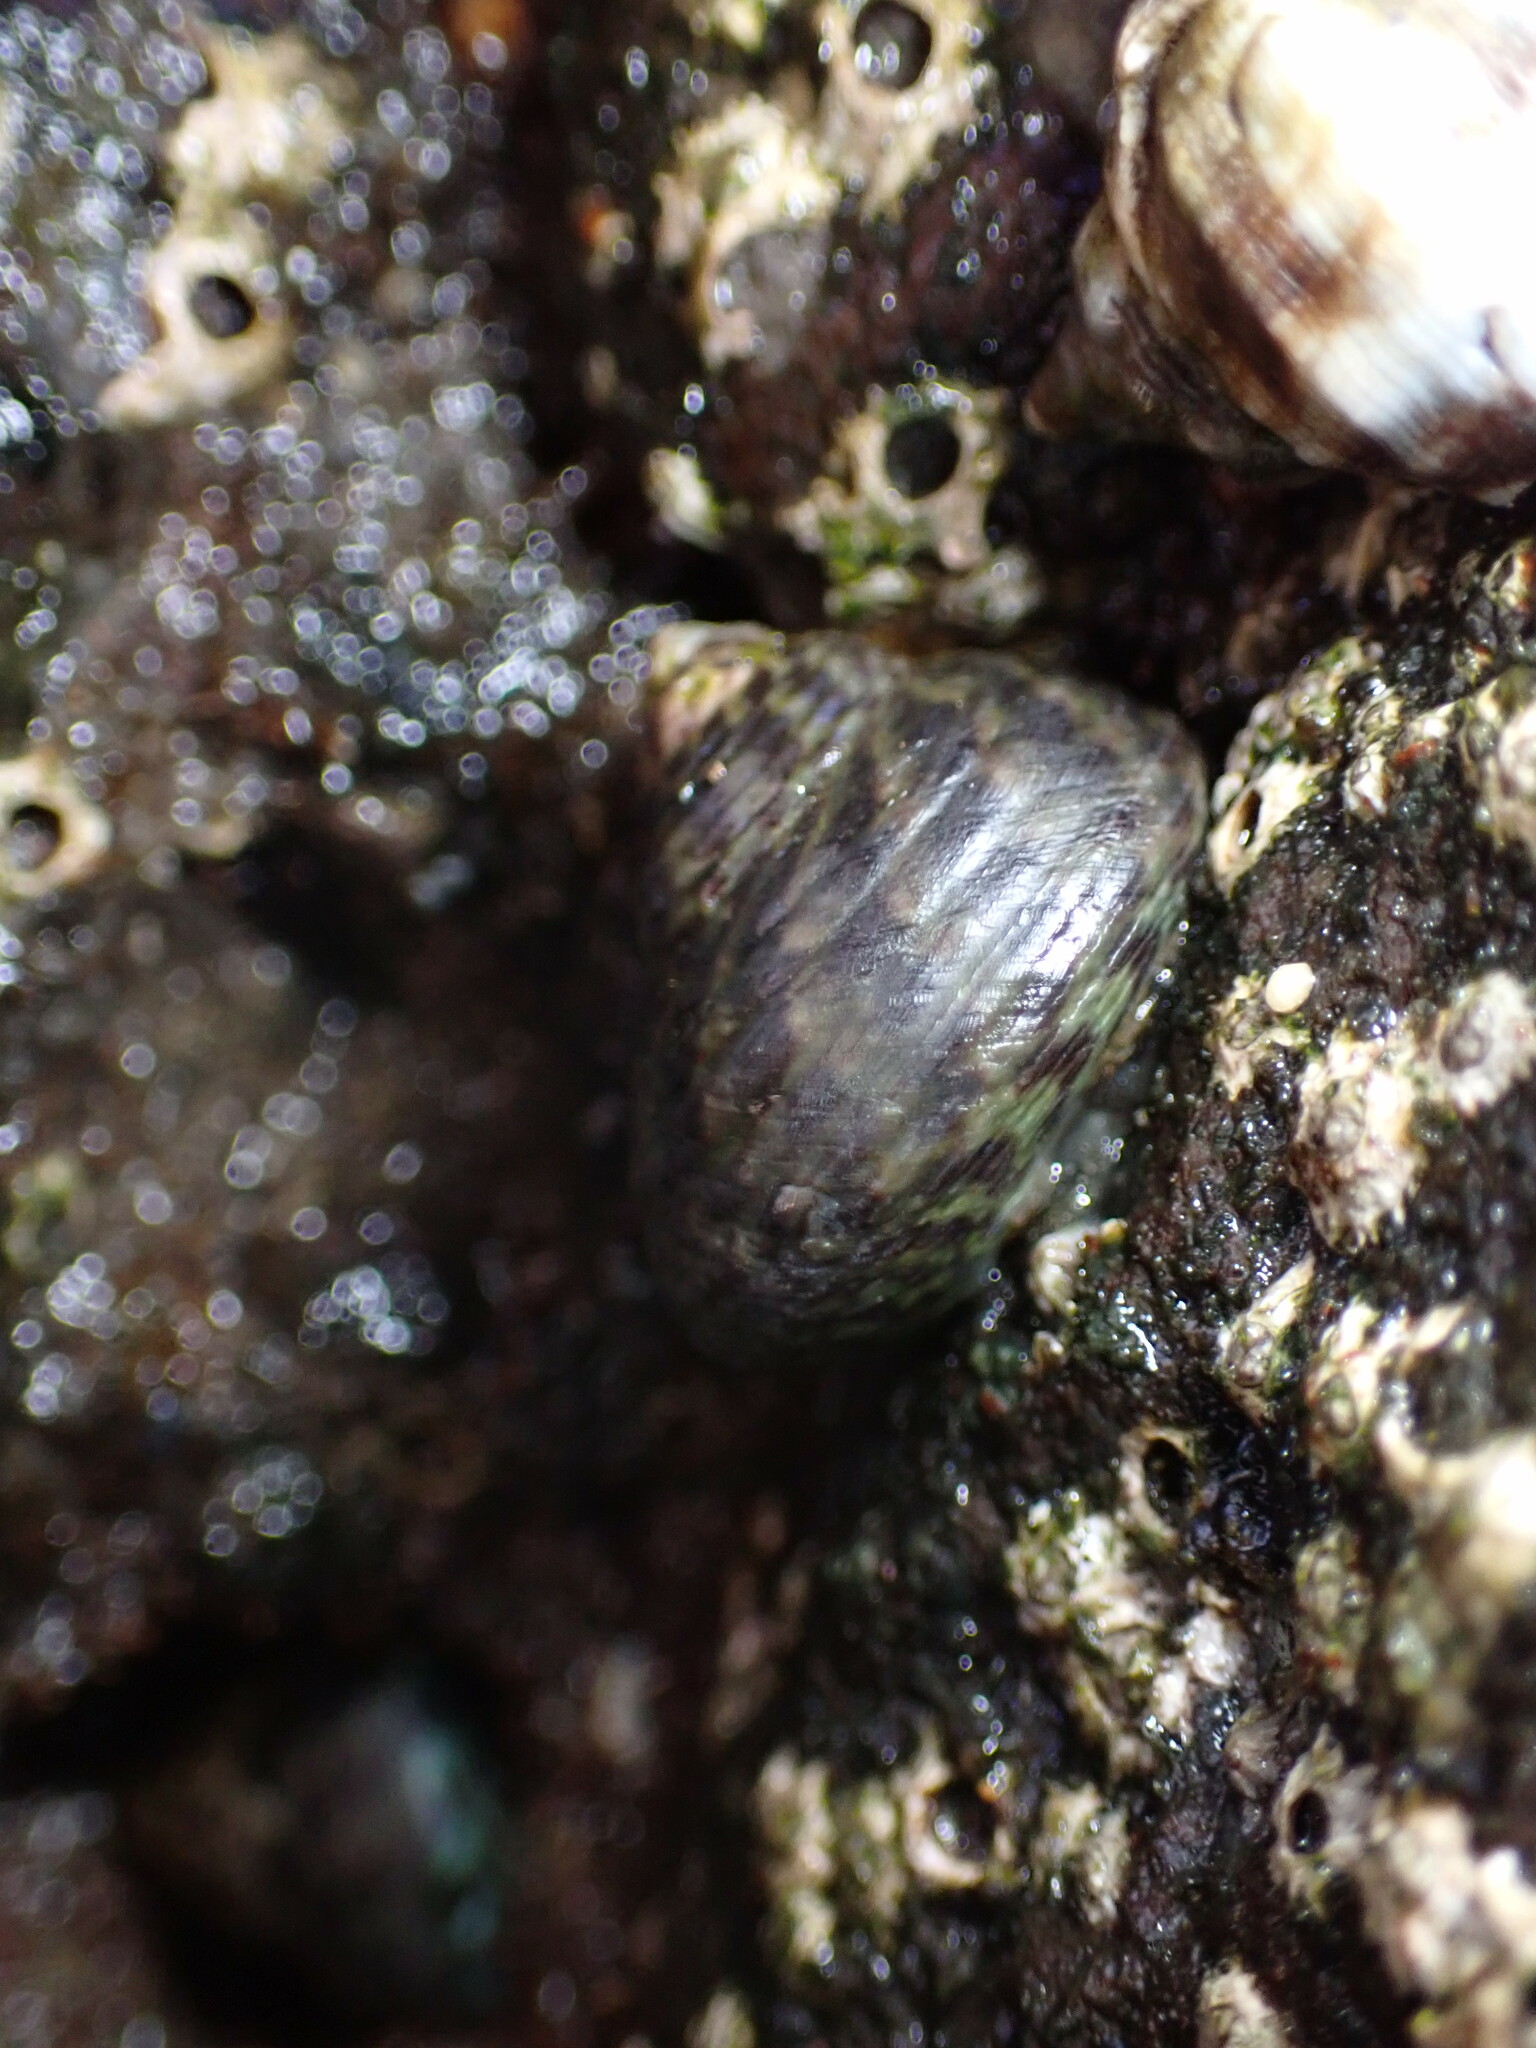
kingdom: Animalia
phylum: Mollusca
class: Gastropoda
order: Trochida
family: Trochidae
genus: Phorcus
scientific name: Phorcus sauciatus
